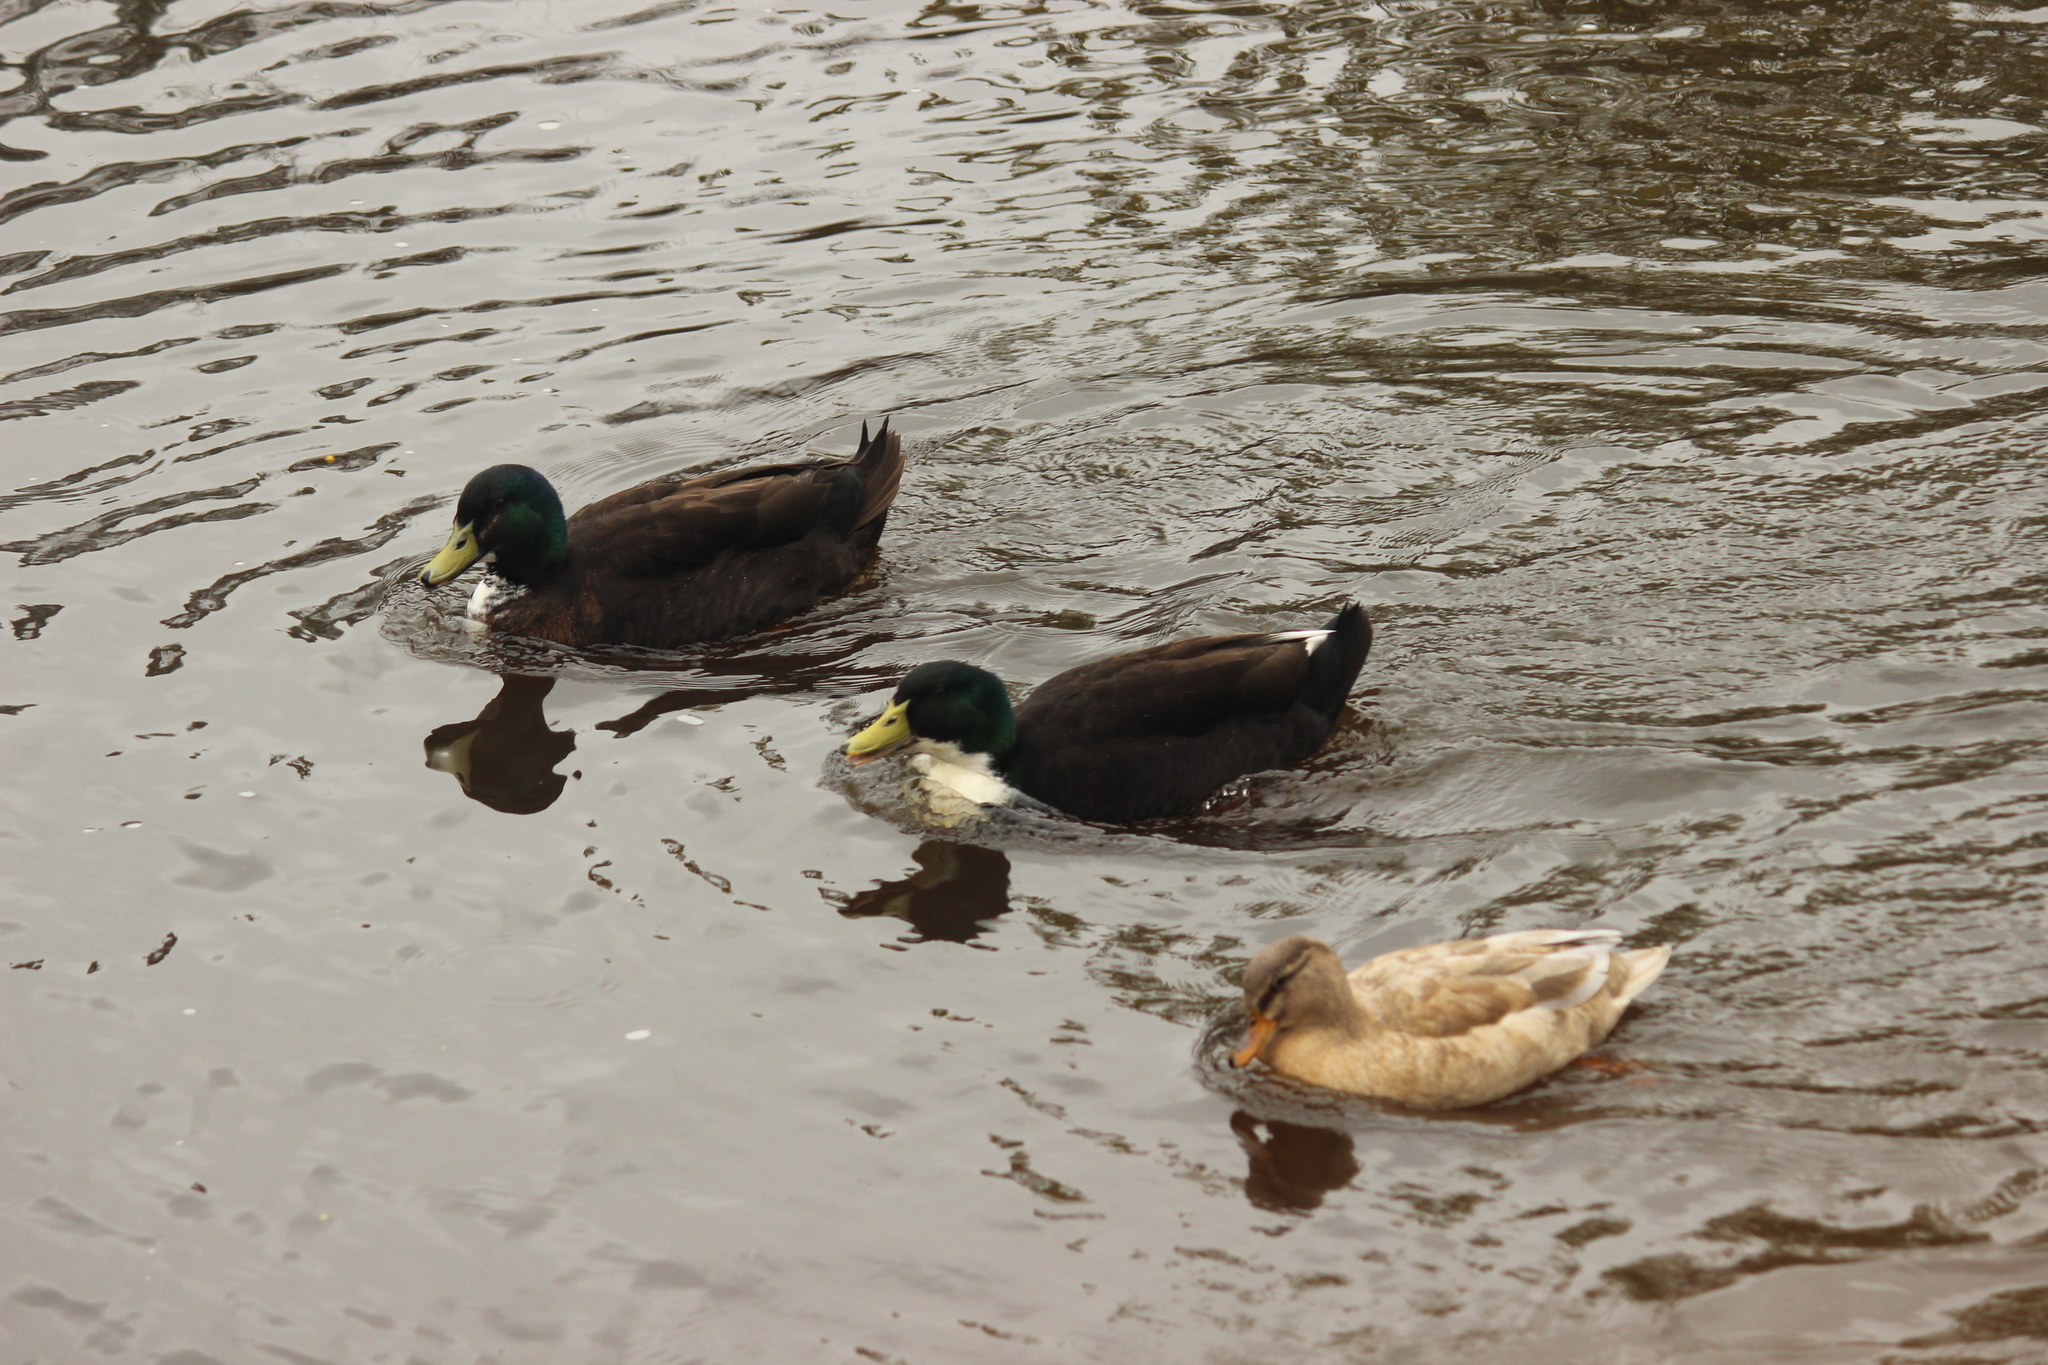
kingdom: Animalia
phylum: Chordata
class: Aves
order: Anseriformes
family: Anatidae
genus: Anas
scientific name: Anas platyrhynchos
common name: Mallard
